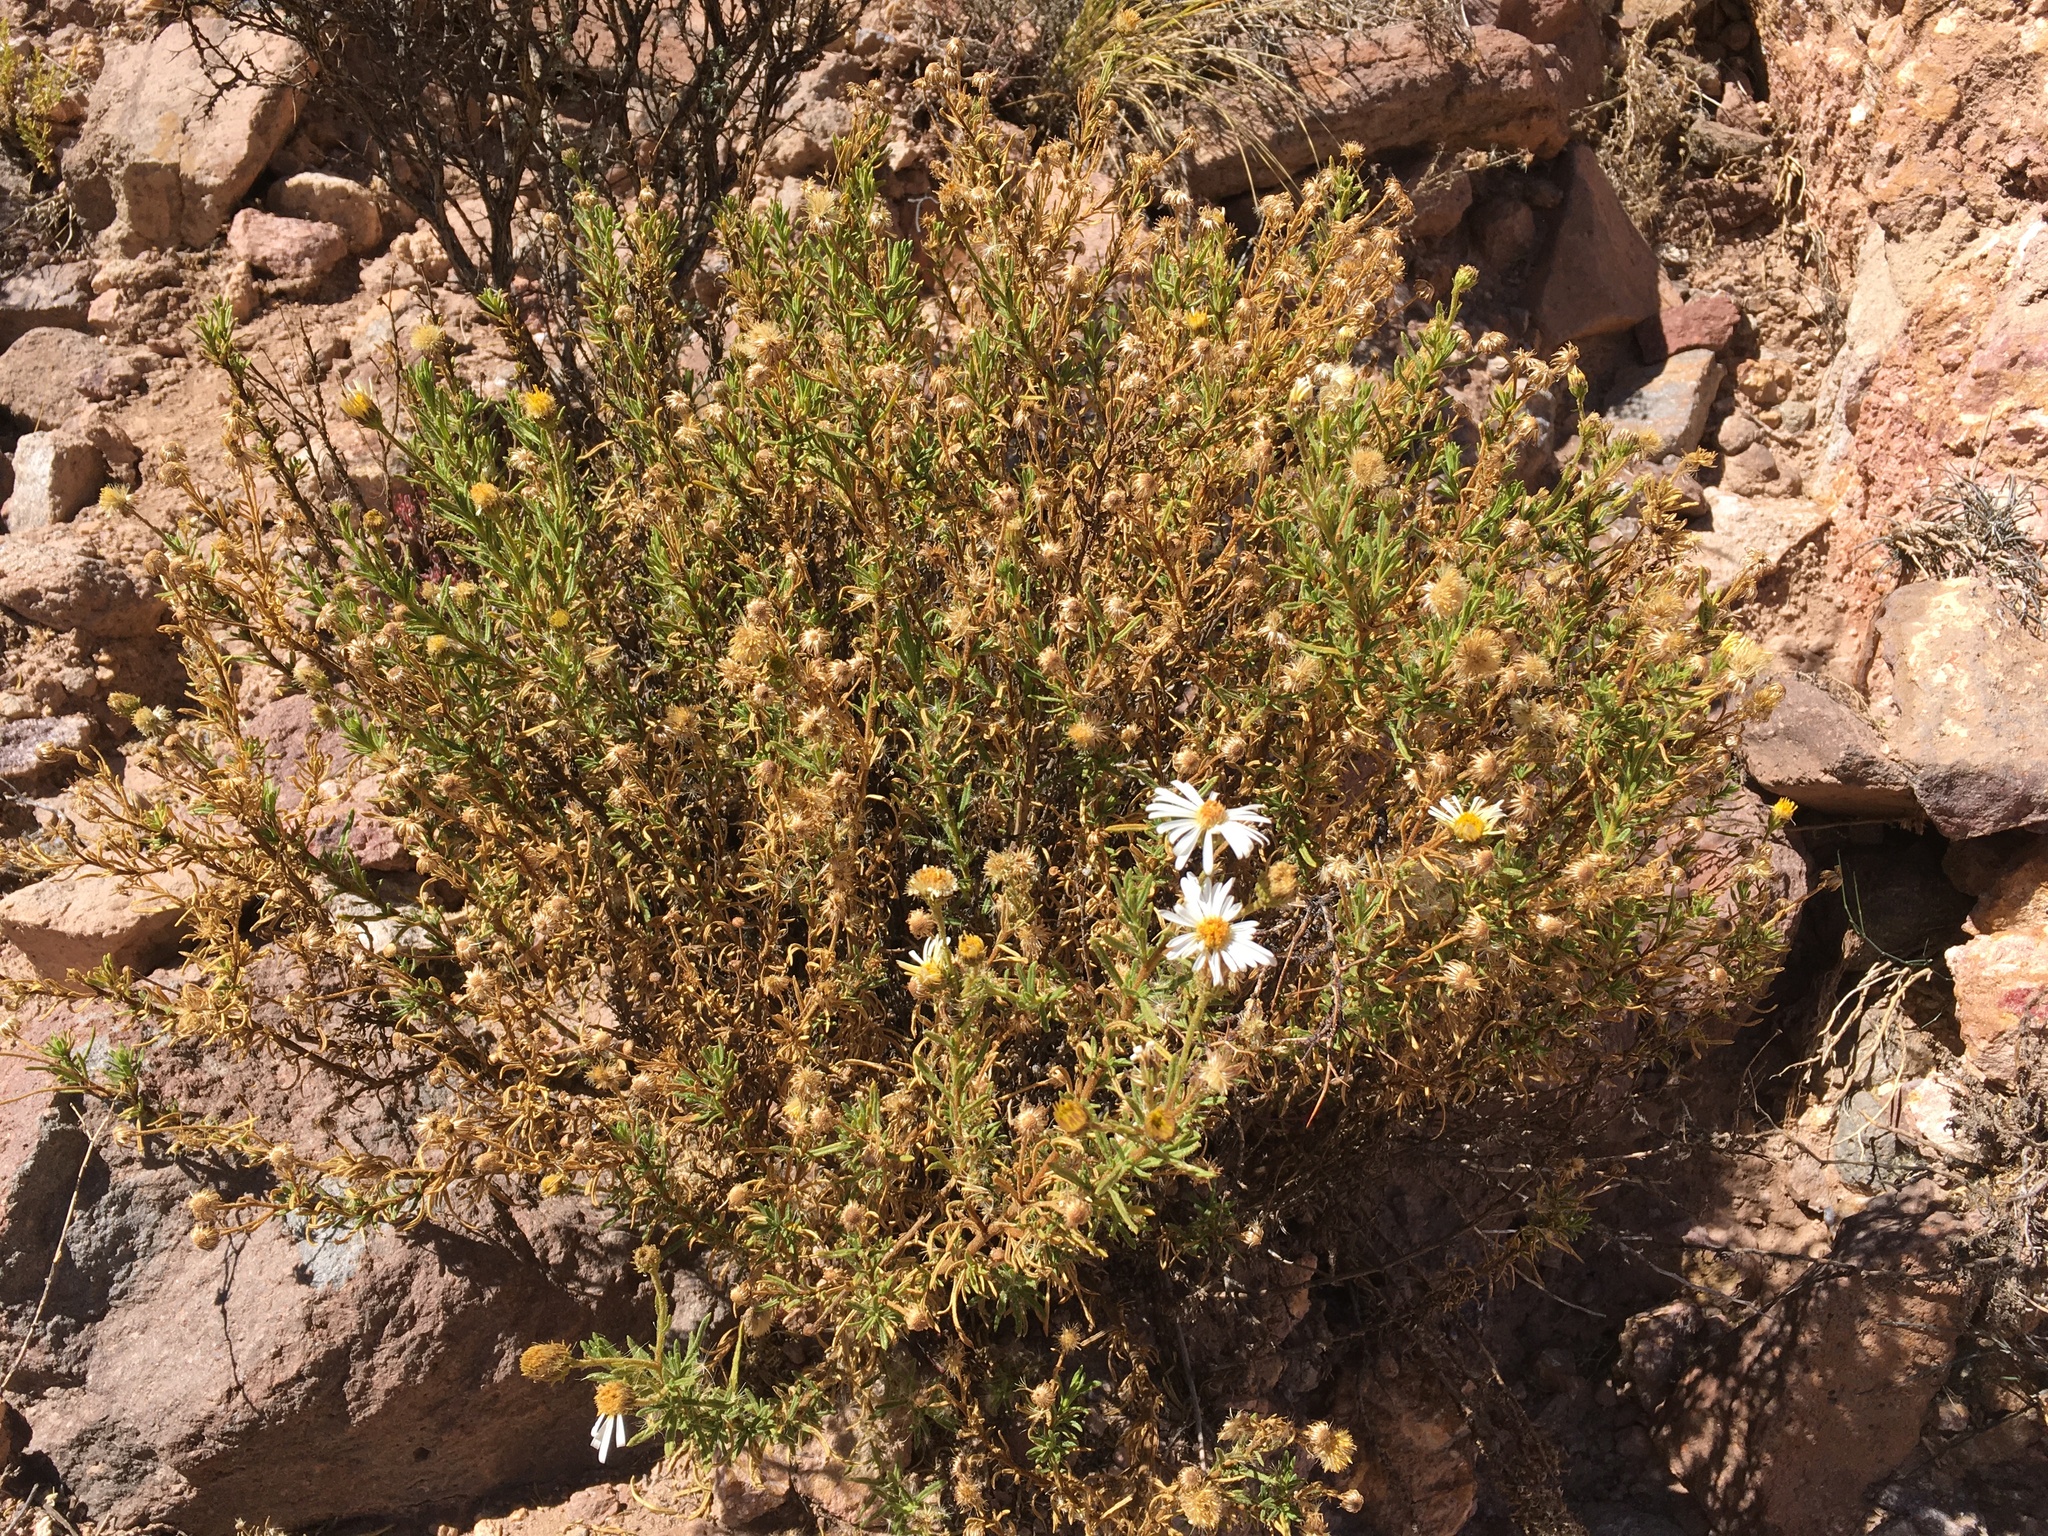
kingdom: Plantae
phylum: Tracheophyta
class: Magnoliopsida
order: Asterales
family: Asteraceae
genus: Diplostephium
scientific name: Diplostephium meyenii
